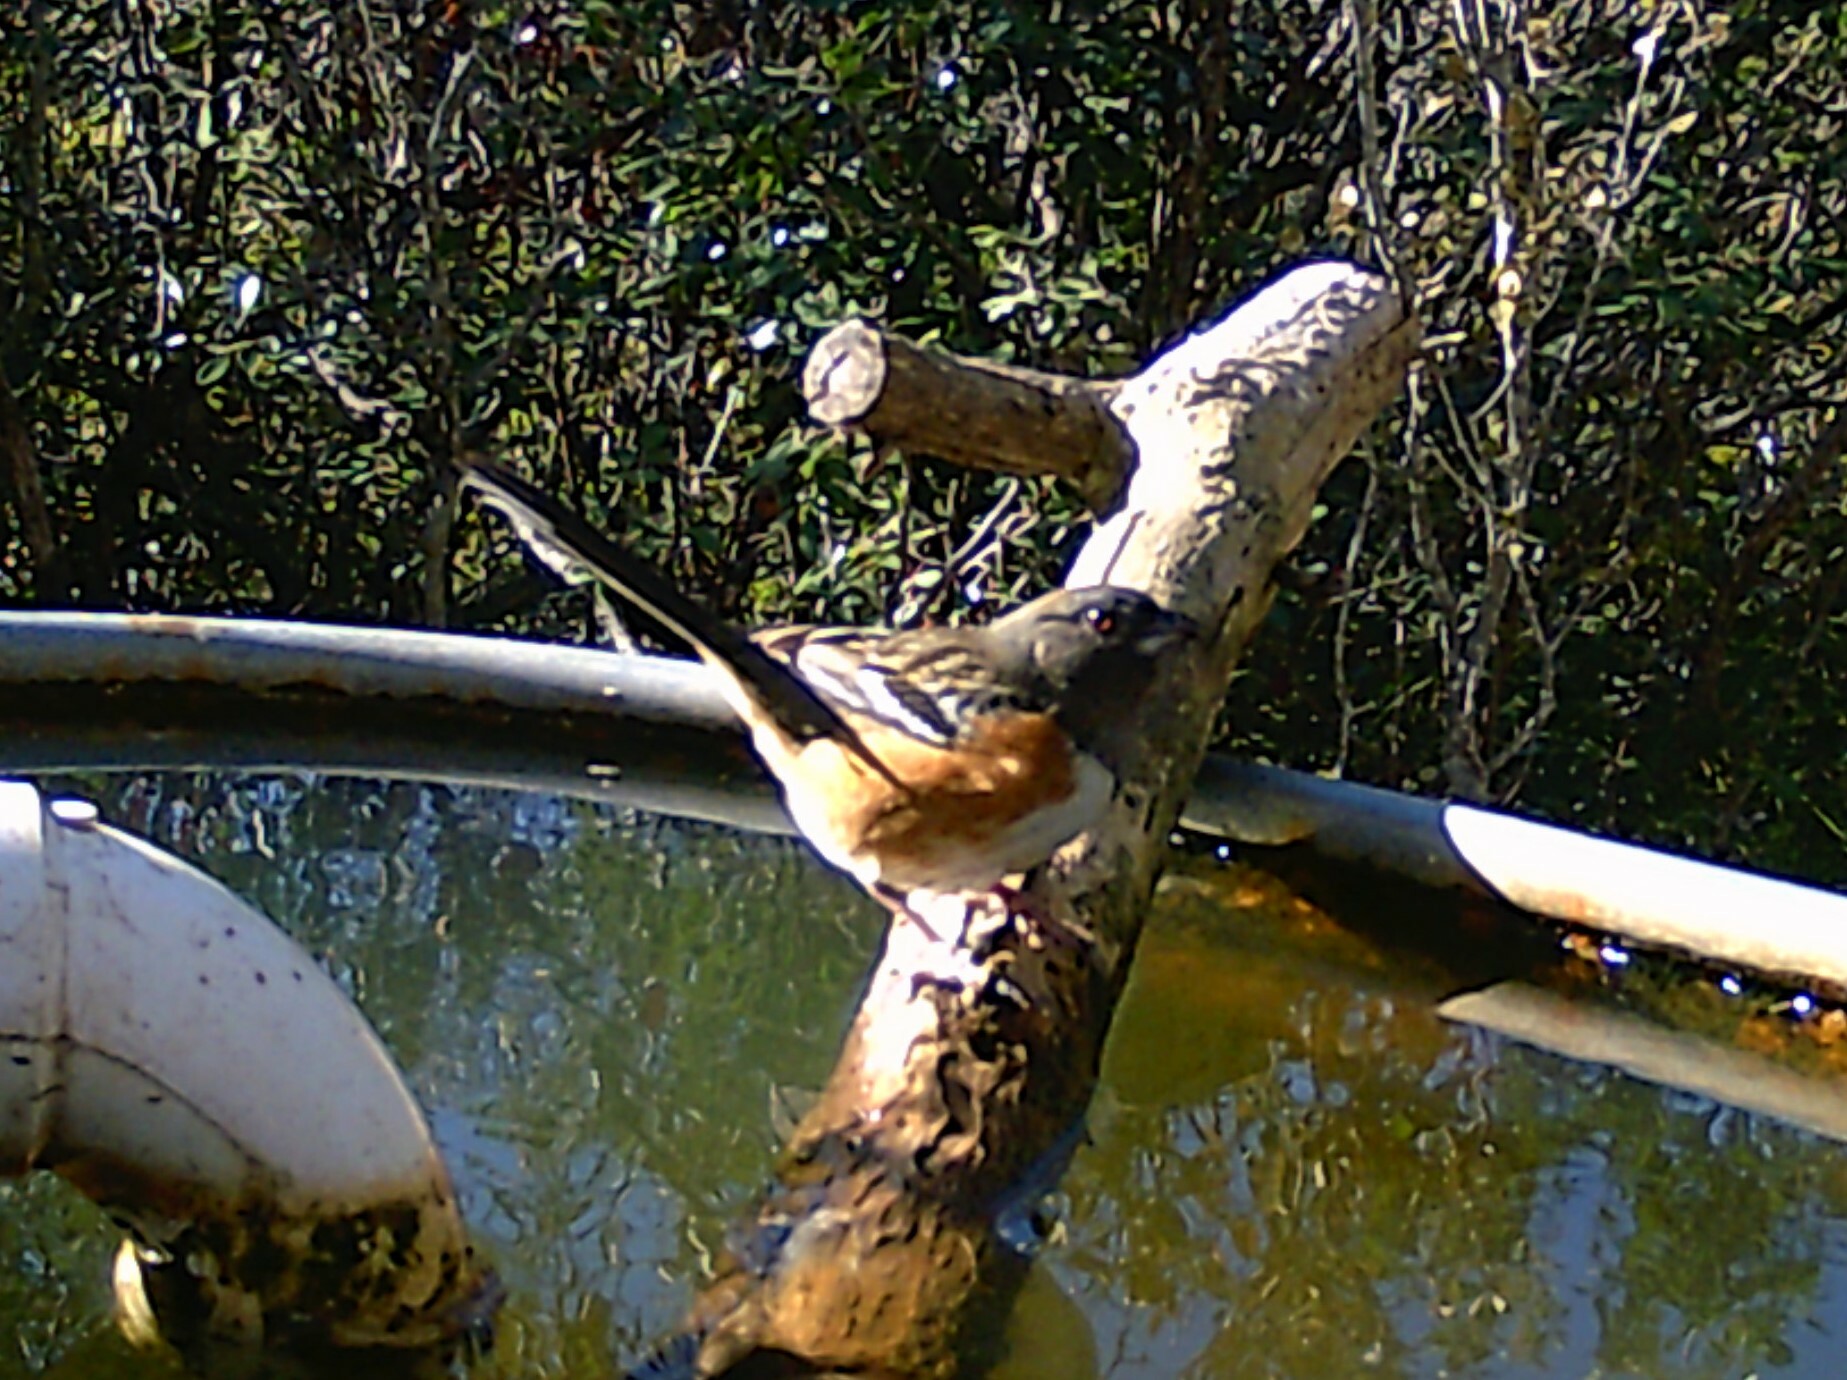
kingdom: Animalia
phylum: Chordata
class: Aves
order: Passeriformes
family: Passerellidae
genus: Pipilo
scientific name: Pipilo maculatus
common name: Spotted towhee
